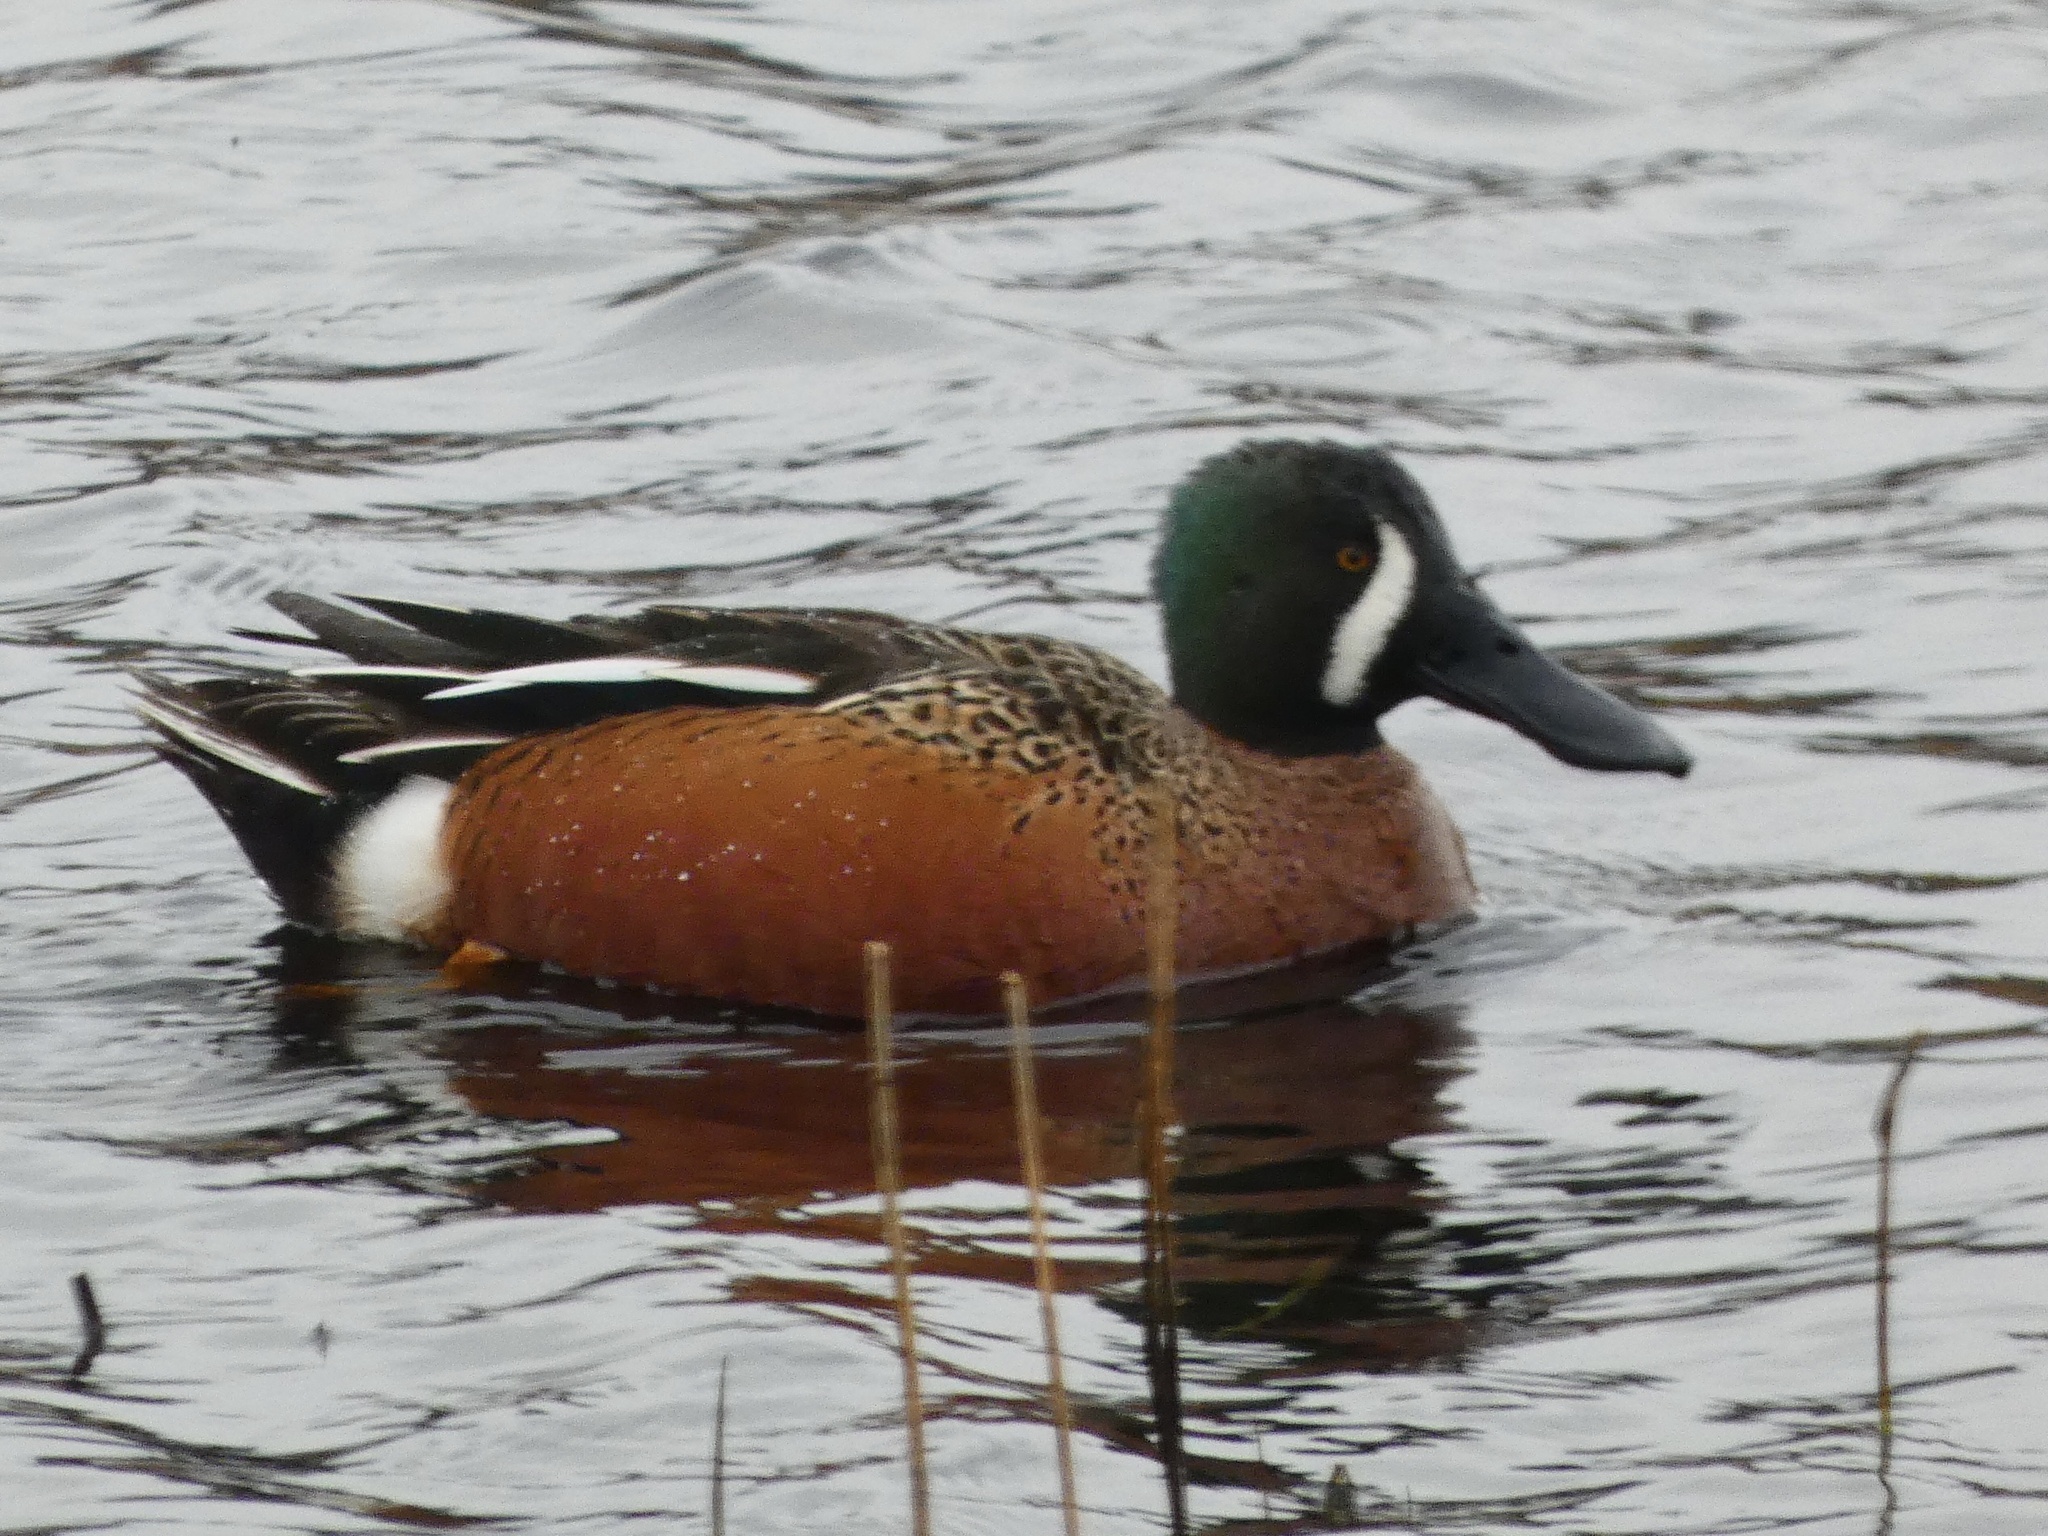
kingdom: Animalia
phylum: Chordata
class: Aves
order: Anseriformes
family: Anatidae
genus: Spatula
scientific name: Spatula
